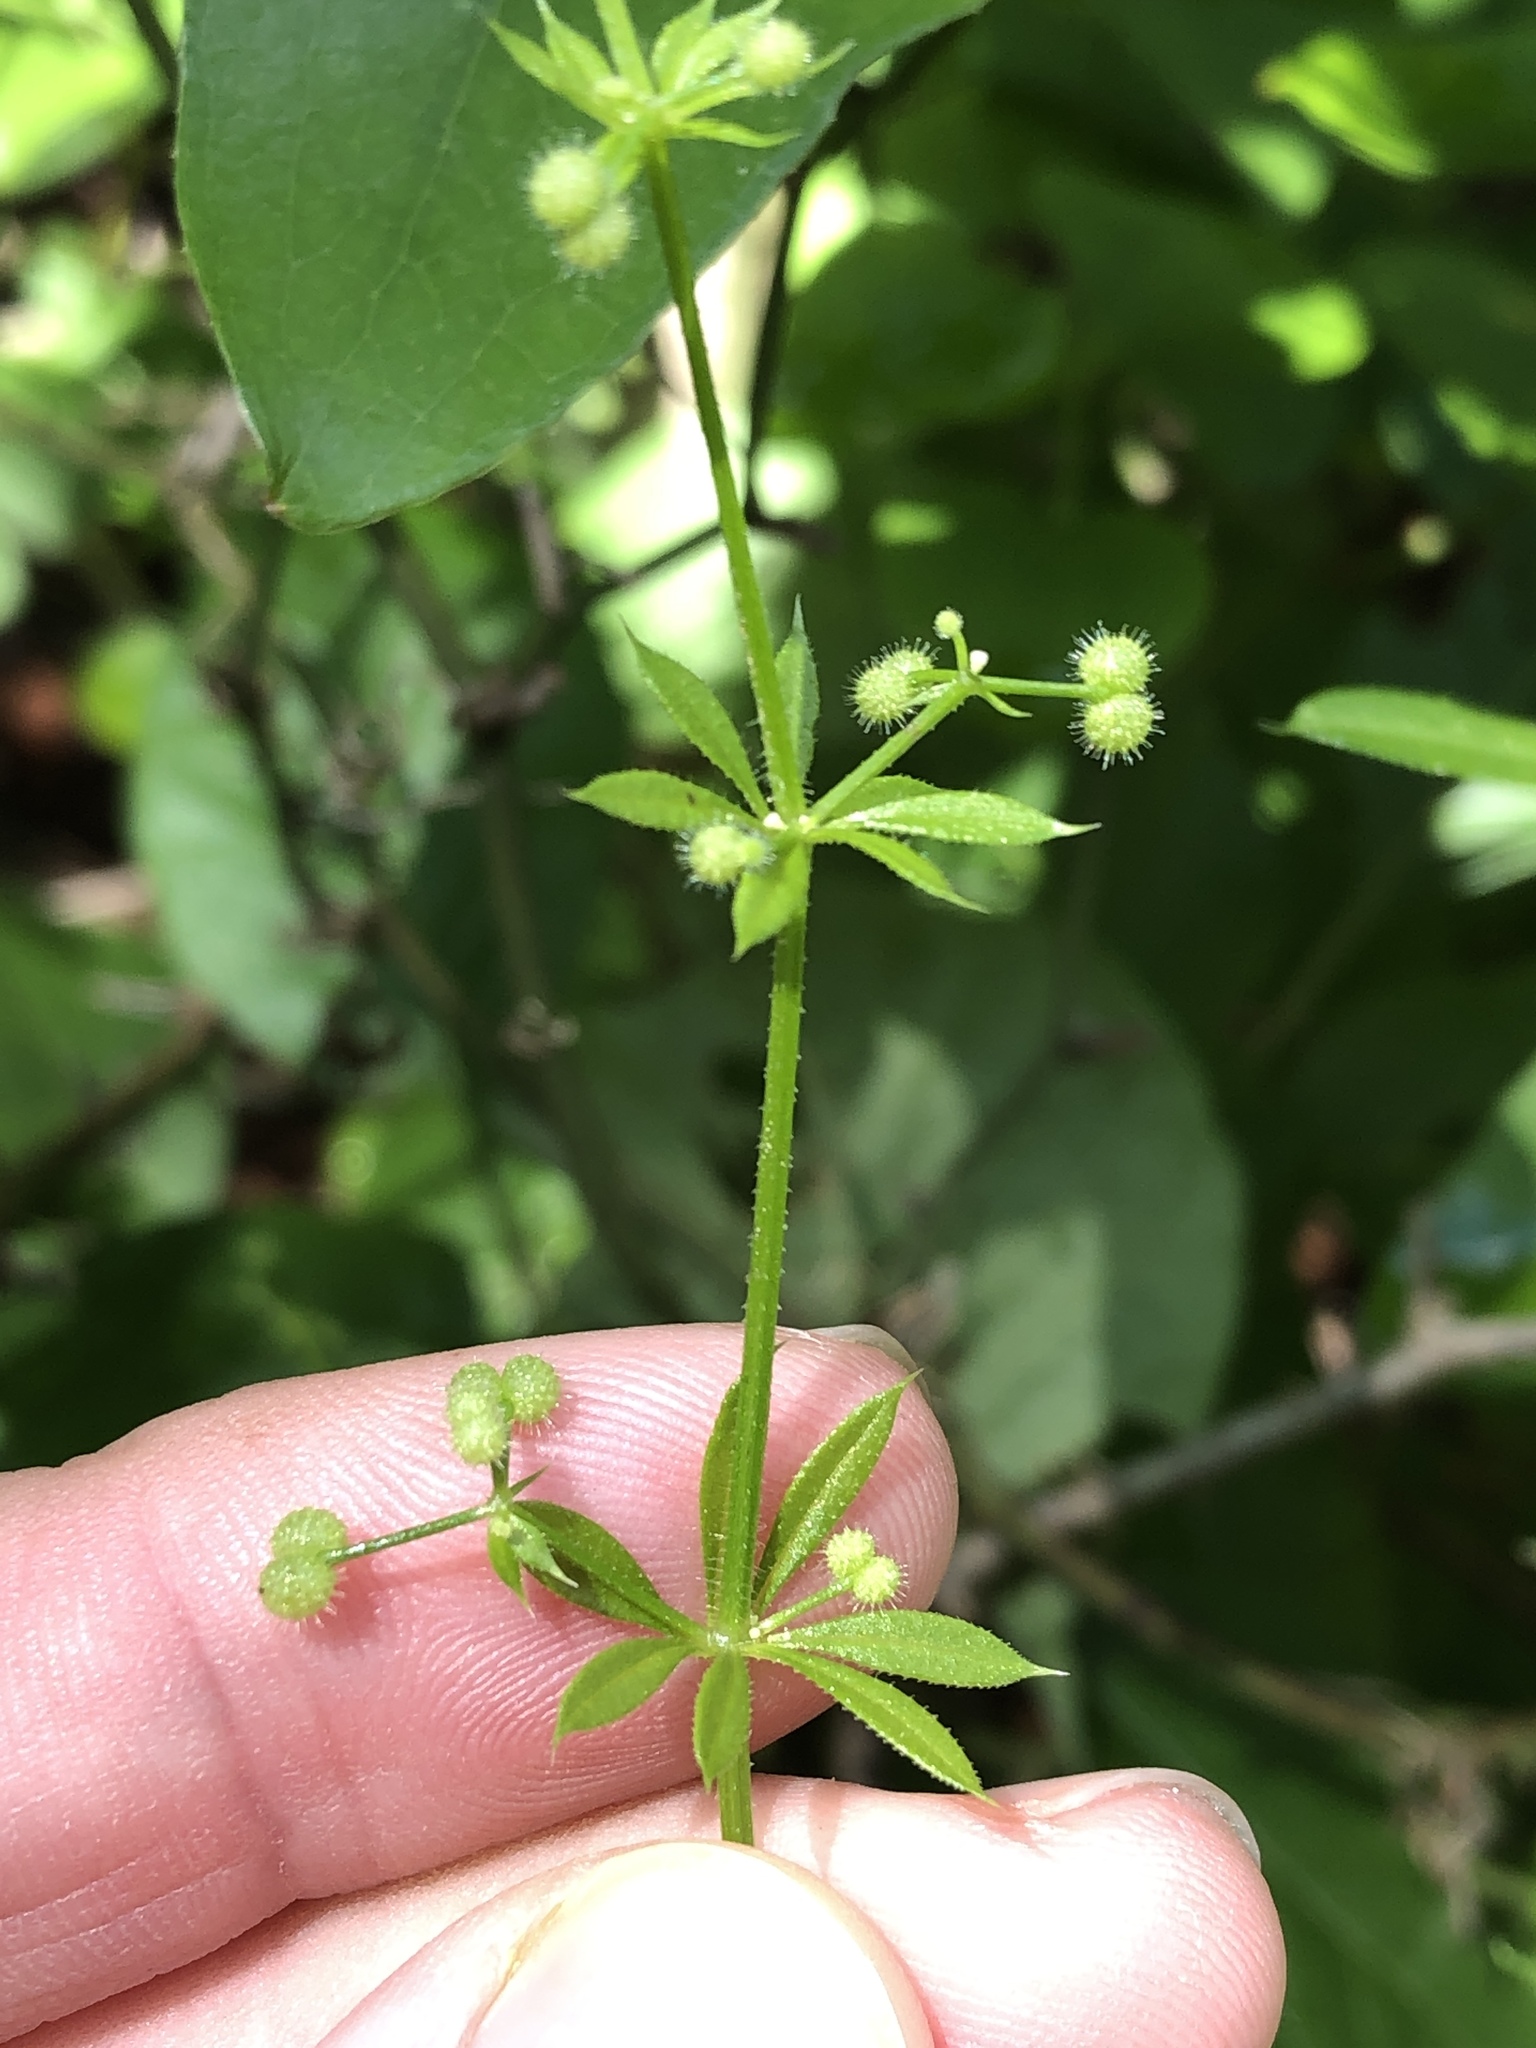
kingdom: Plantae
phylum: Tracheophyta
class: Magnoliopsida
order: Gentianales
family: Rubiaceae
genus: Galium
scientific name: Galium aparine
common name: Cleavers
